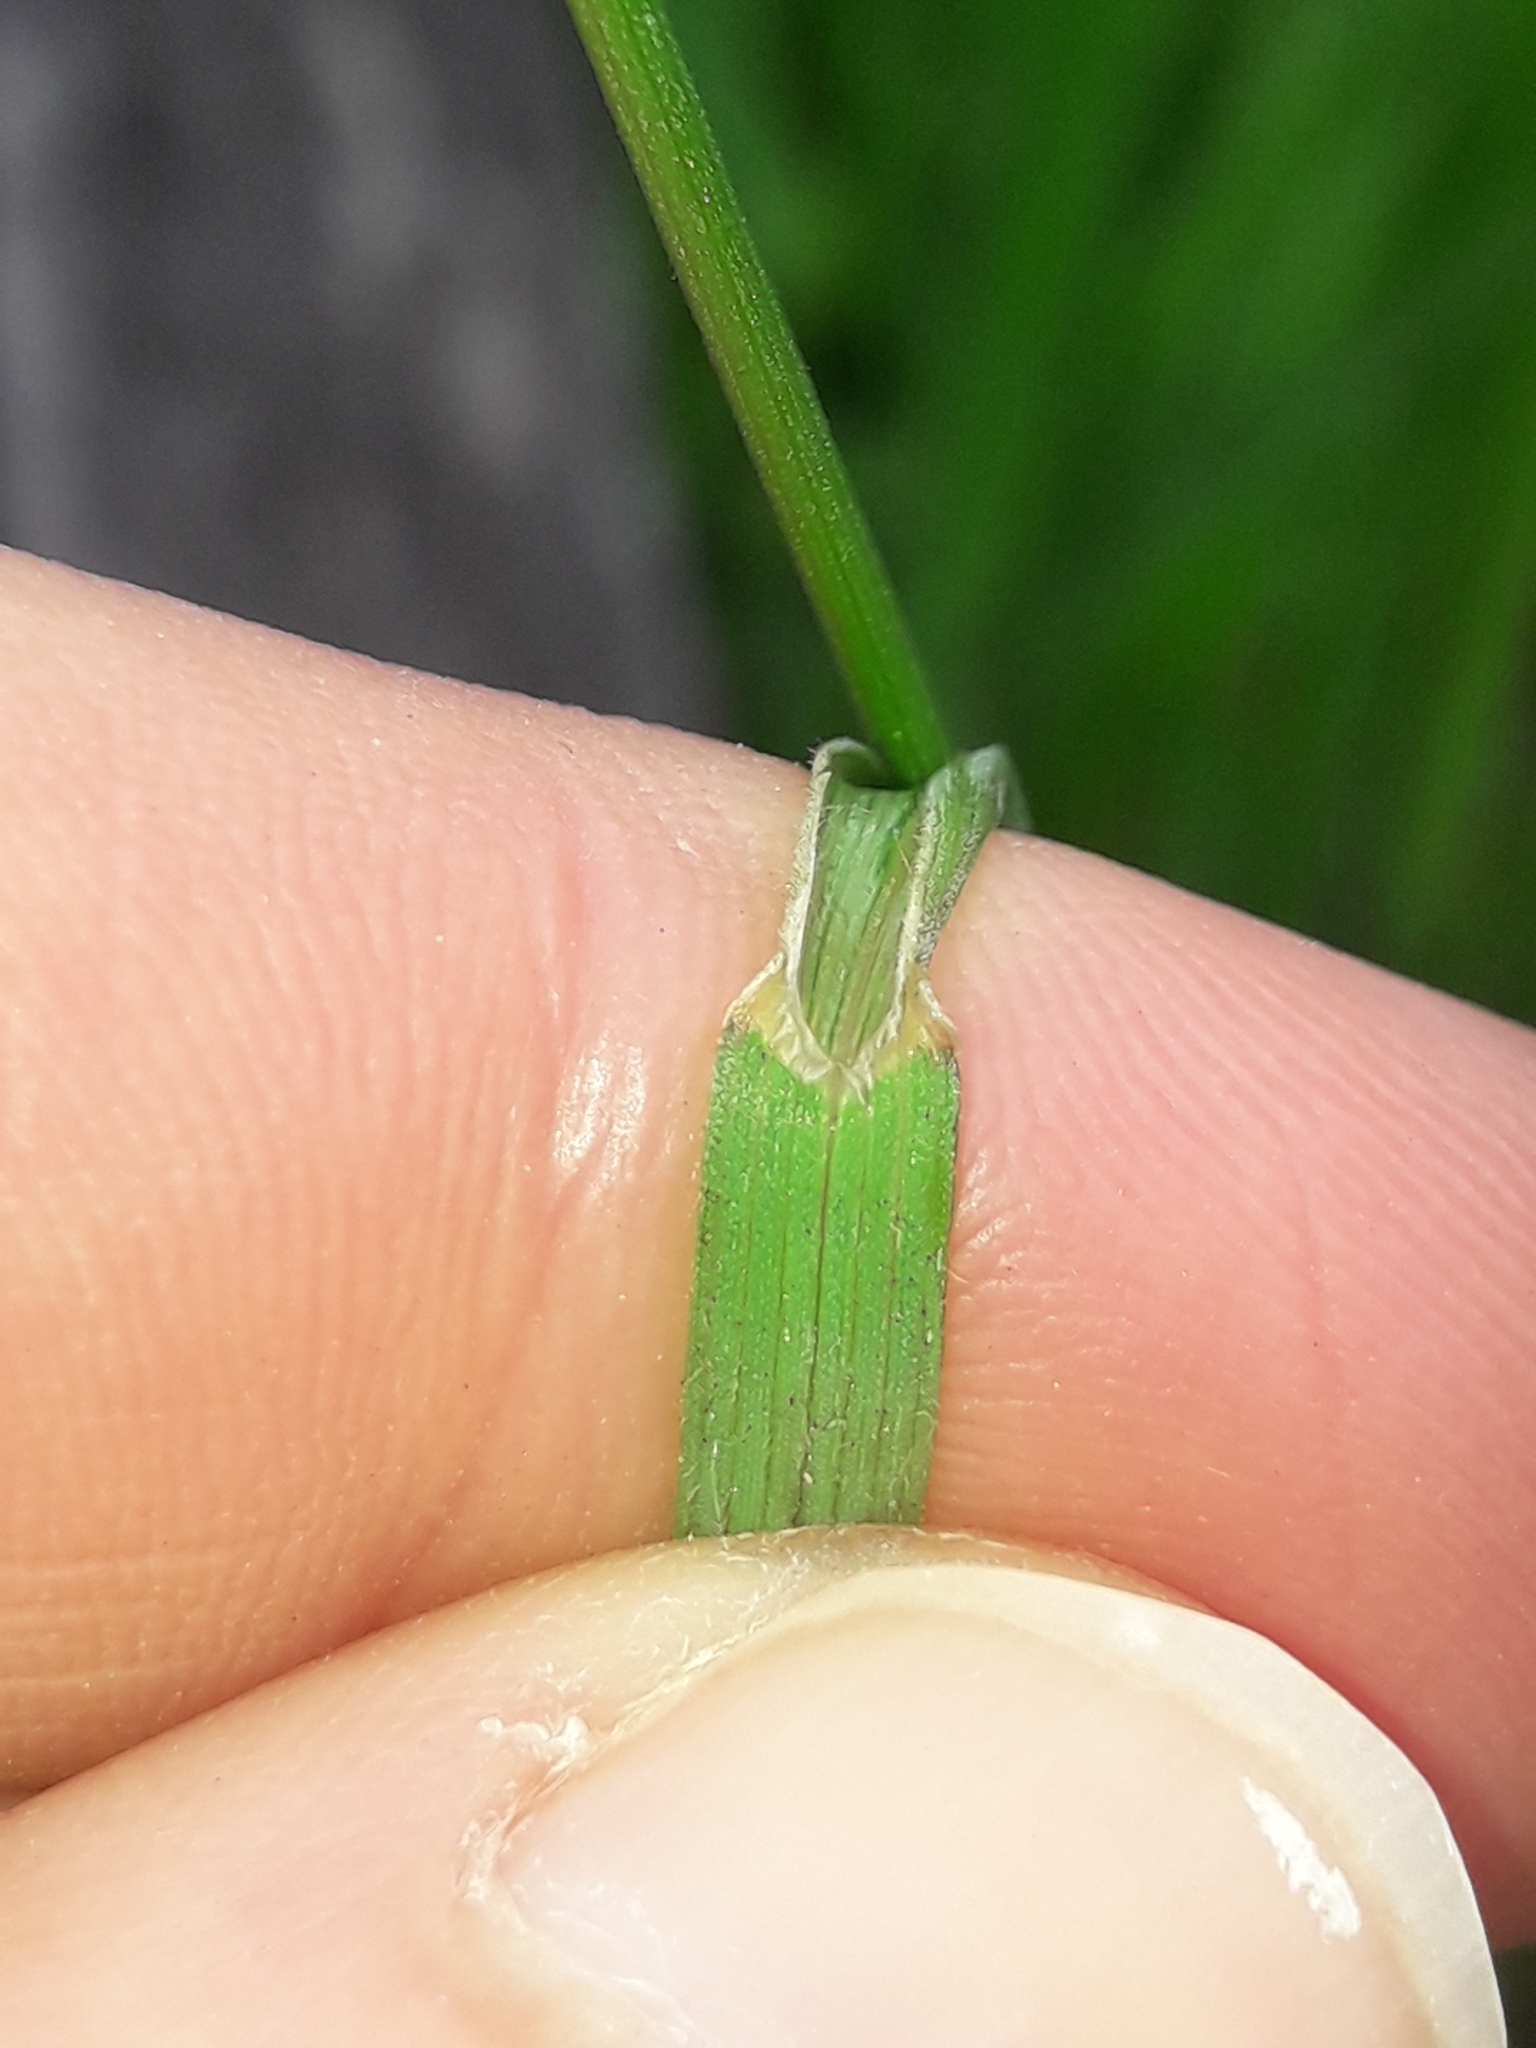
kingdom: Plantae
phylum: Tracheophyta
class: Liliopsida
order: Poales
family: Poaceae
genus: Bromus
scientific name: Bromus hordeaceus
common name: Soft brome
